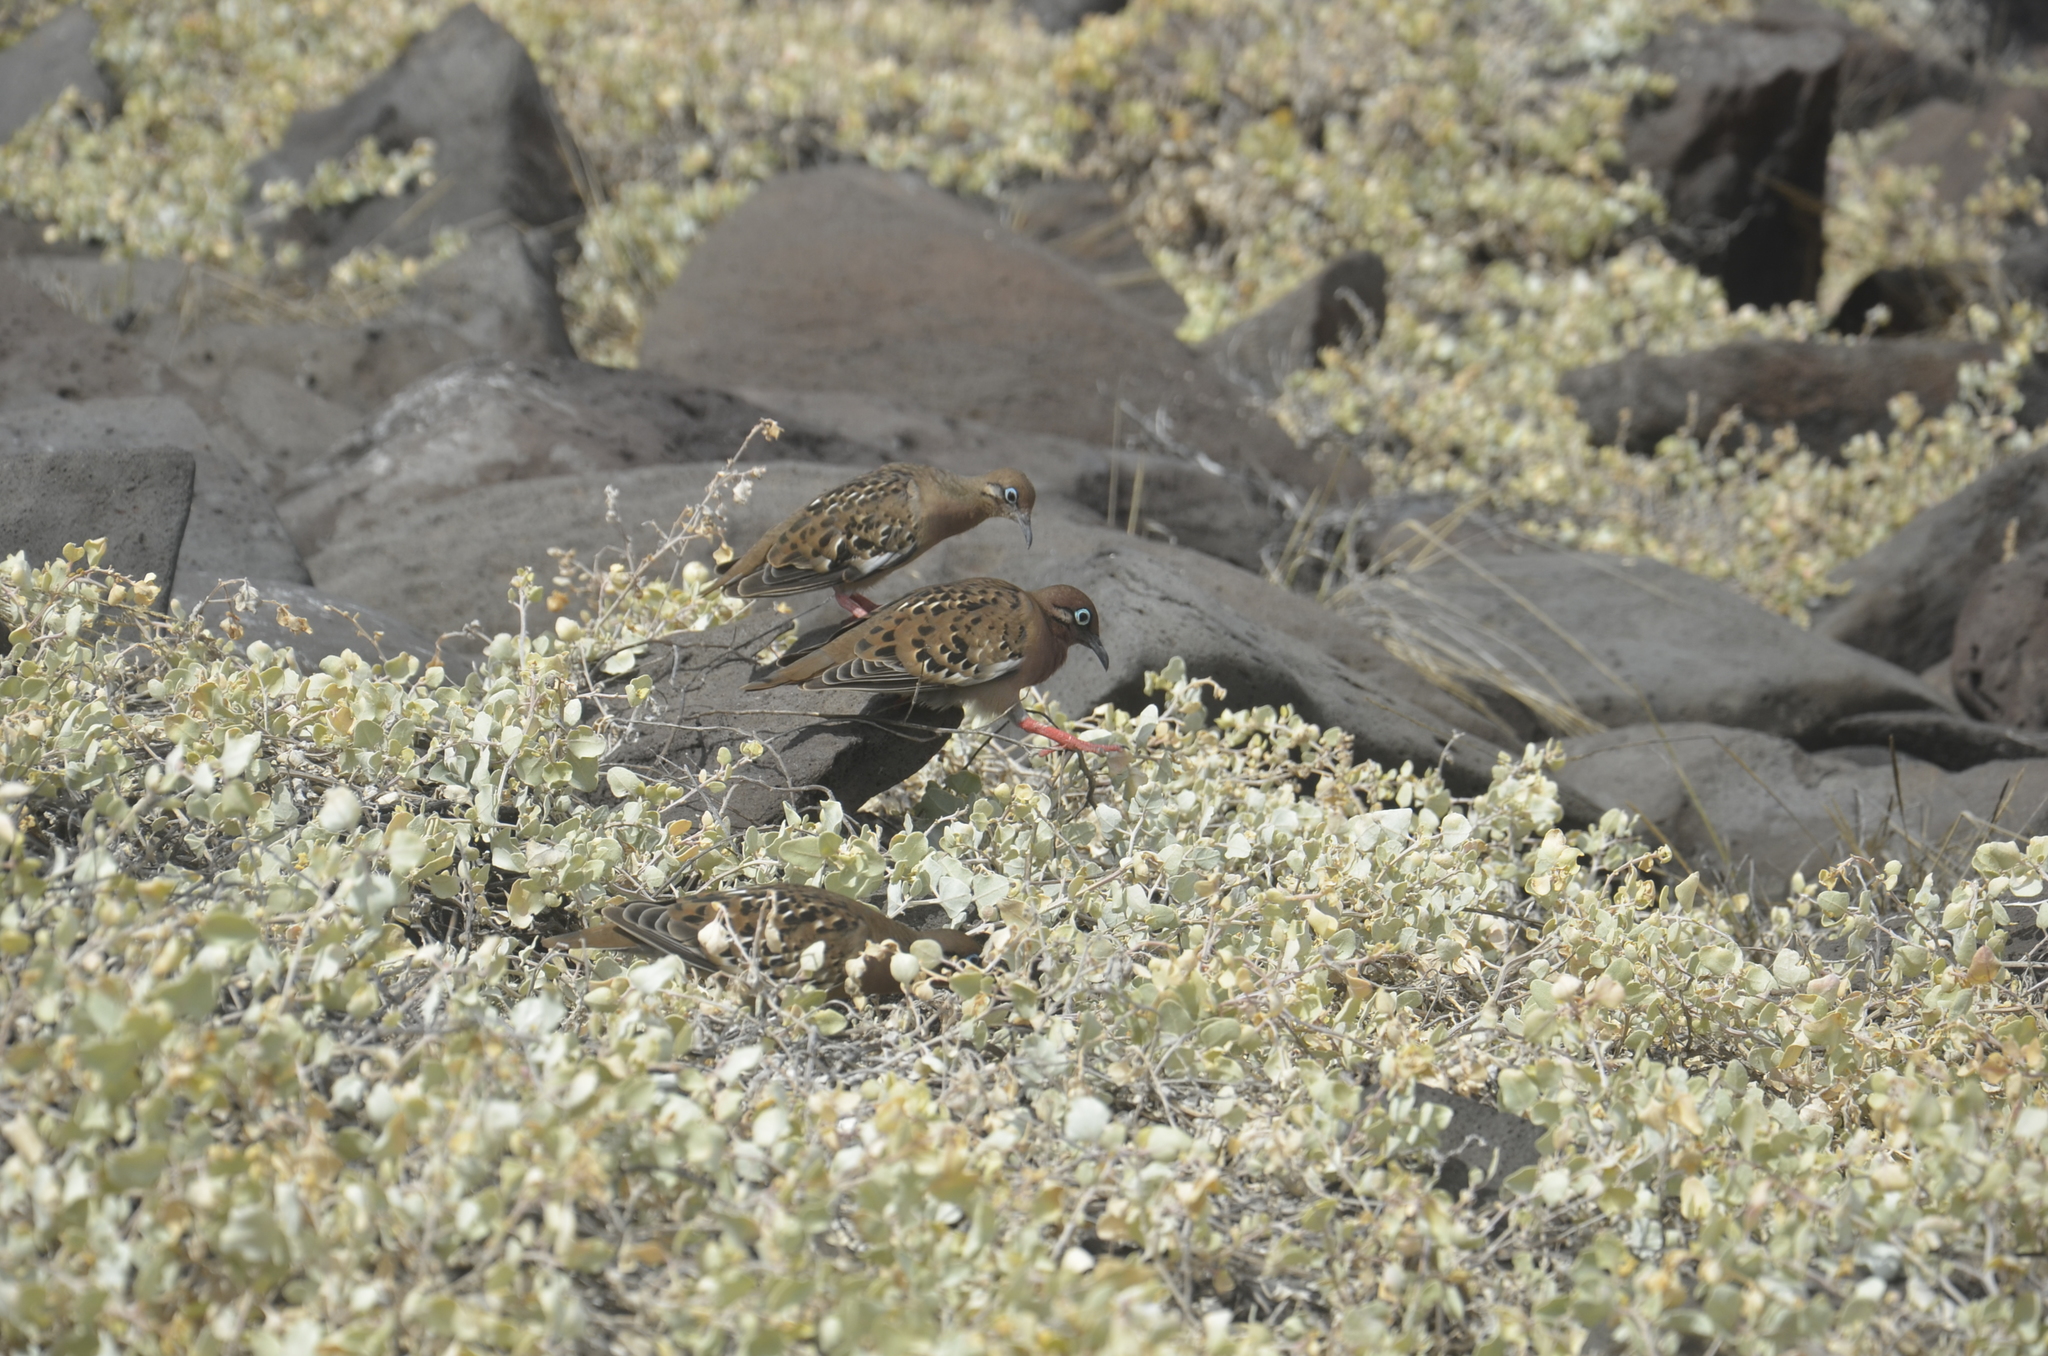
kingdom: Animalia
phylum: Chordata
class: Aves
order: Columbiformes
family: Columbidae
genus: Zenaida
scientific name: Zenaida galapagoensis
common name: Galapagos dove
